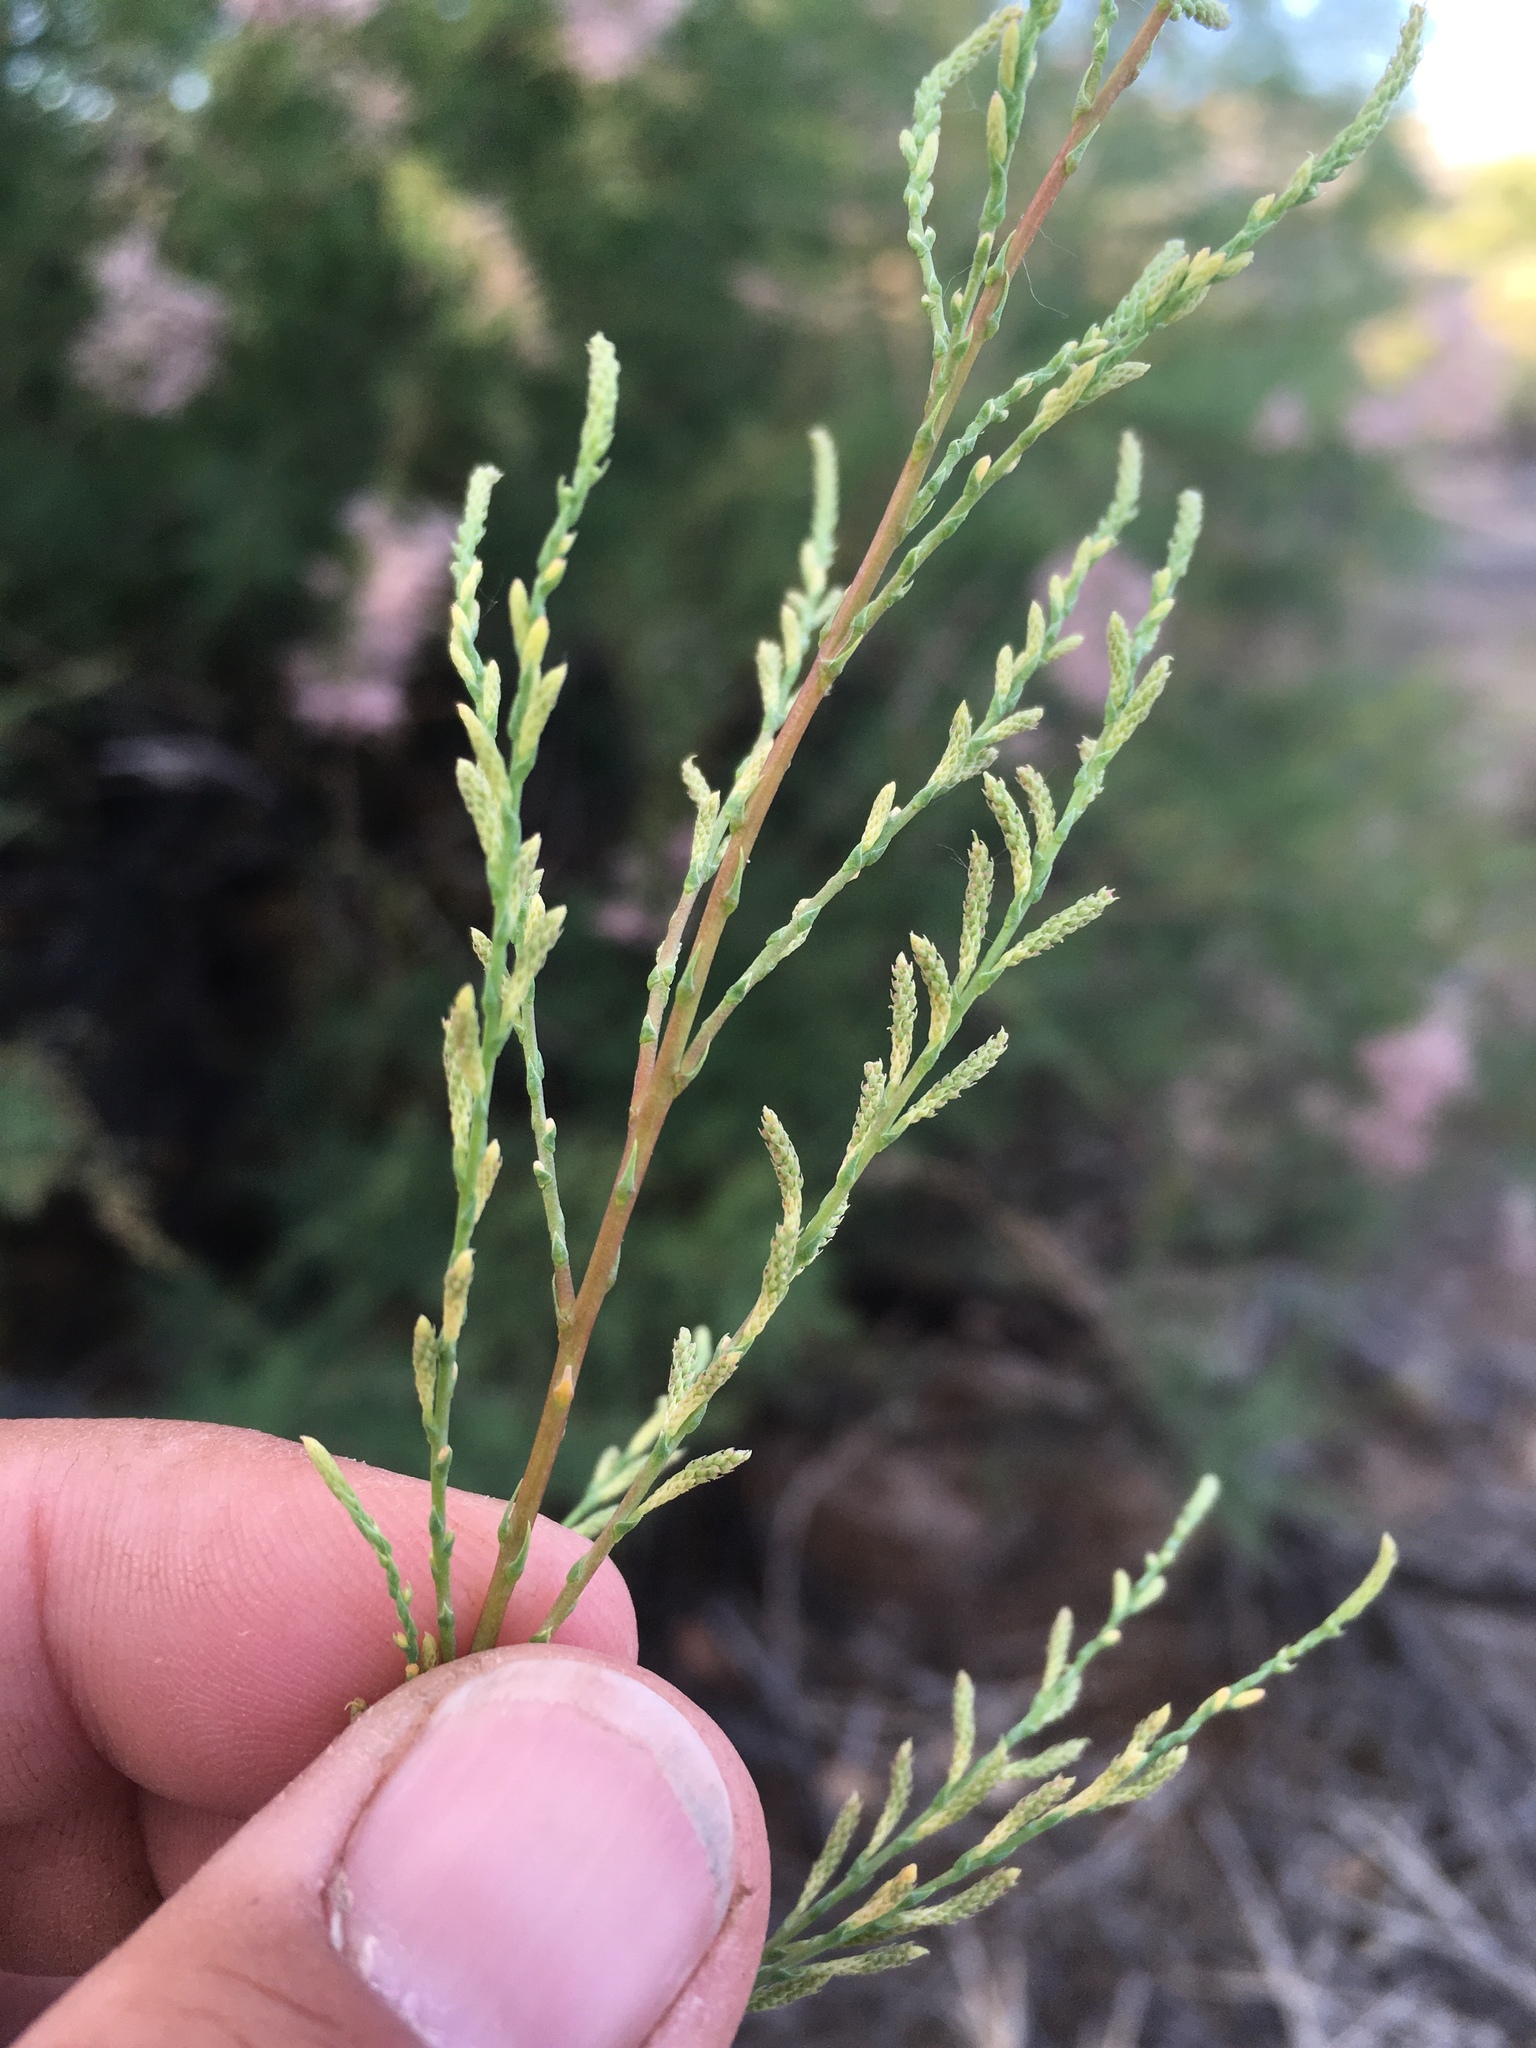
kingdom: Plantae
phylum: Tracheophyta
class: Magnoliopsida
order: Caryophyllales
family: Tamaricaceae
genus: Tamarix
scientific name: Tamarix chinensis
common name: Chinese tamarisk
